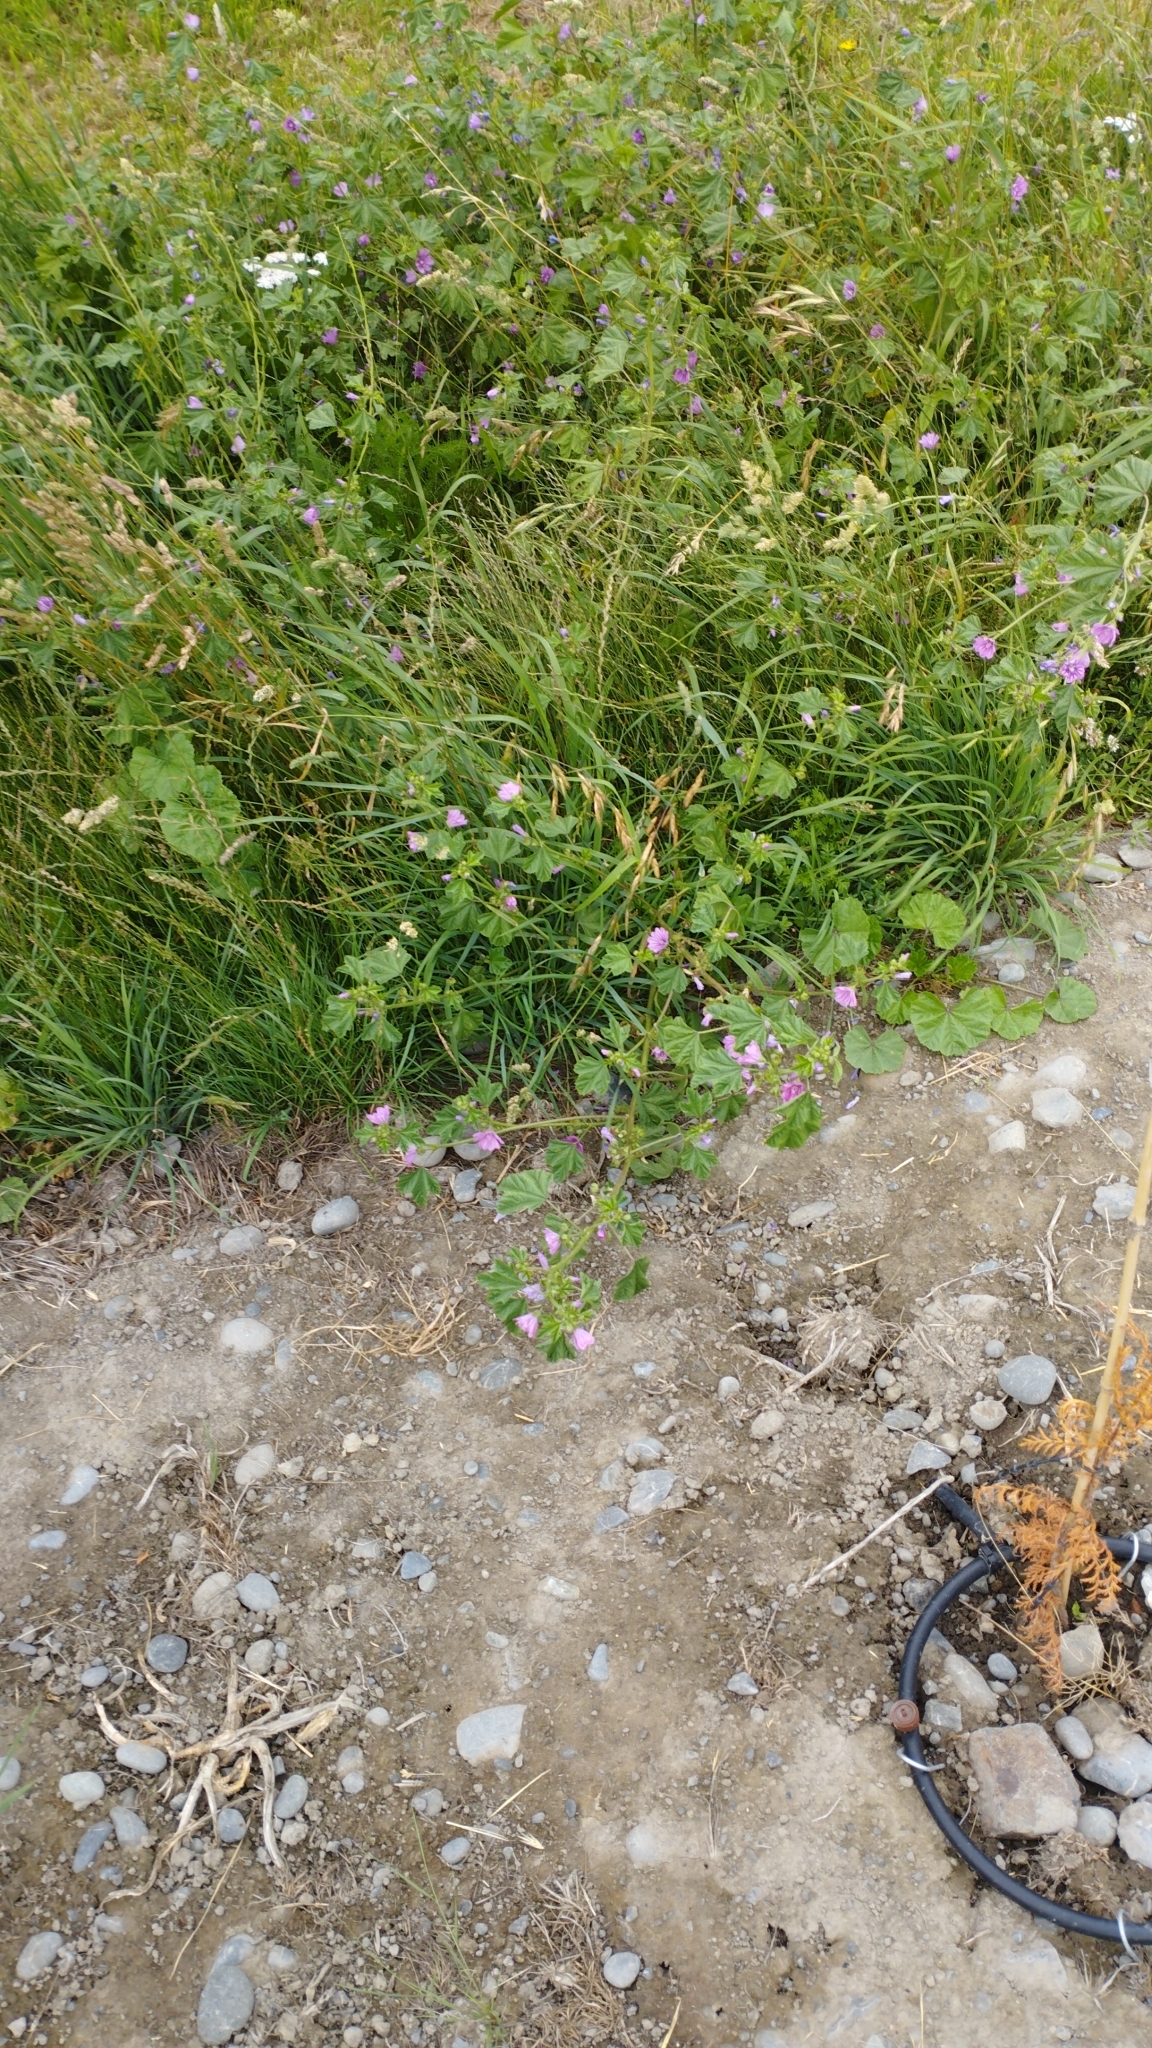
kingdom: Plantae
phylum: Tracheophyta
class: Magnoliopsida
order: Malvales
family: Malvaceae
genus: Malva
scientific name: Malva sylvestris
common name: Common mallow
